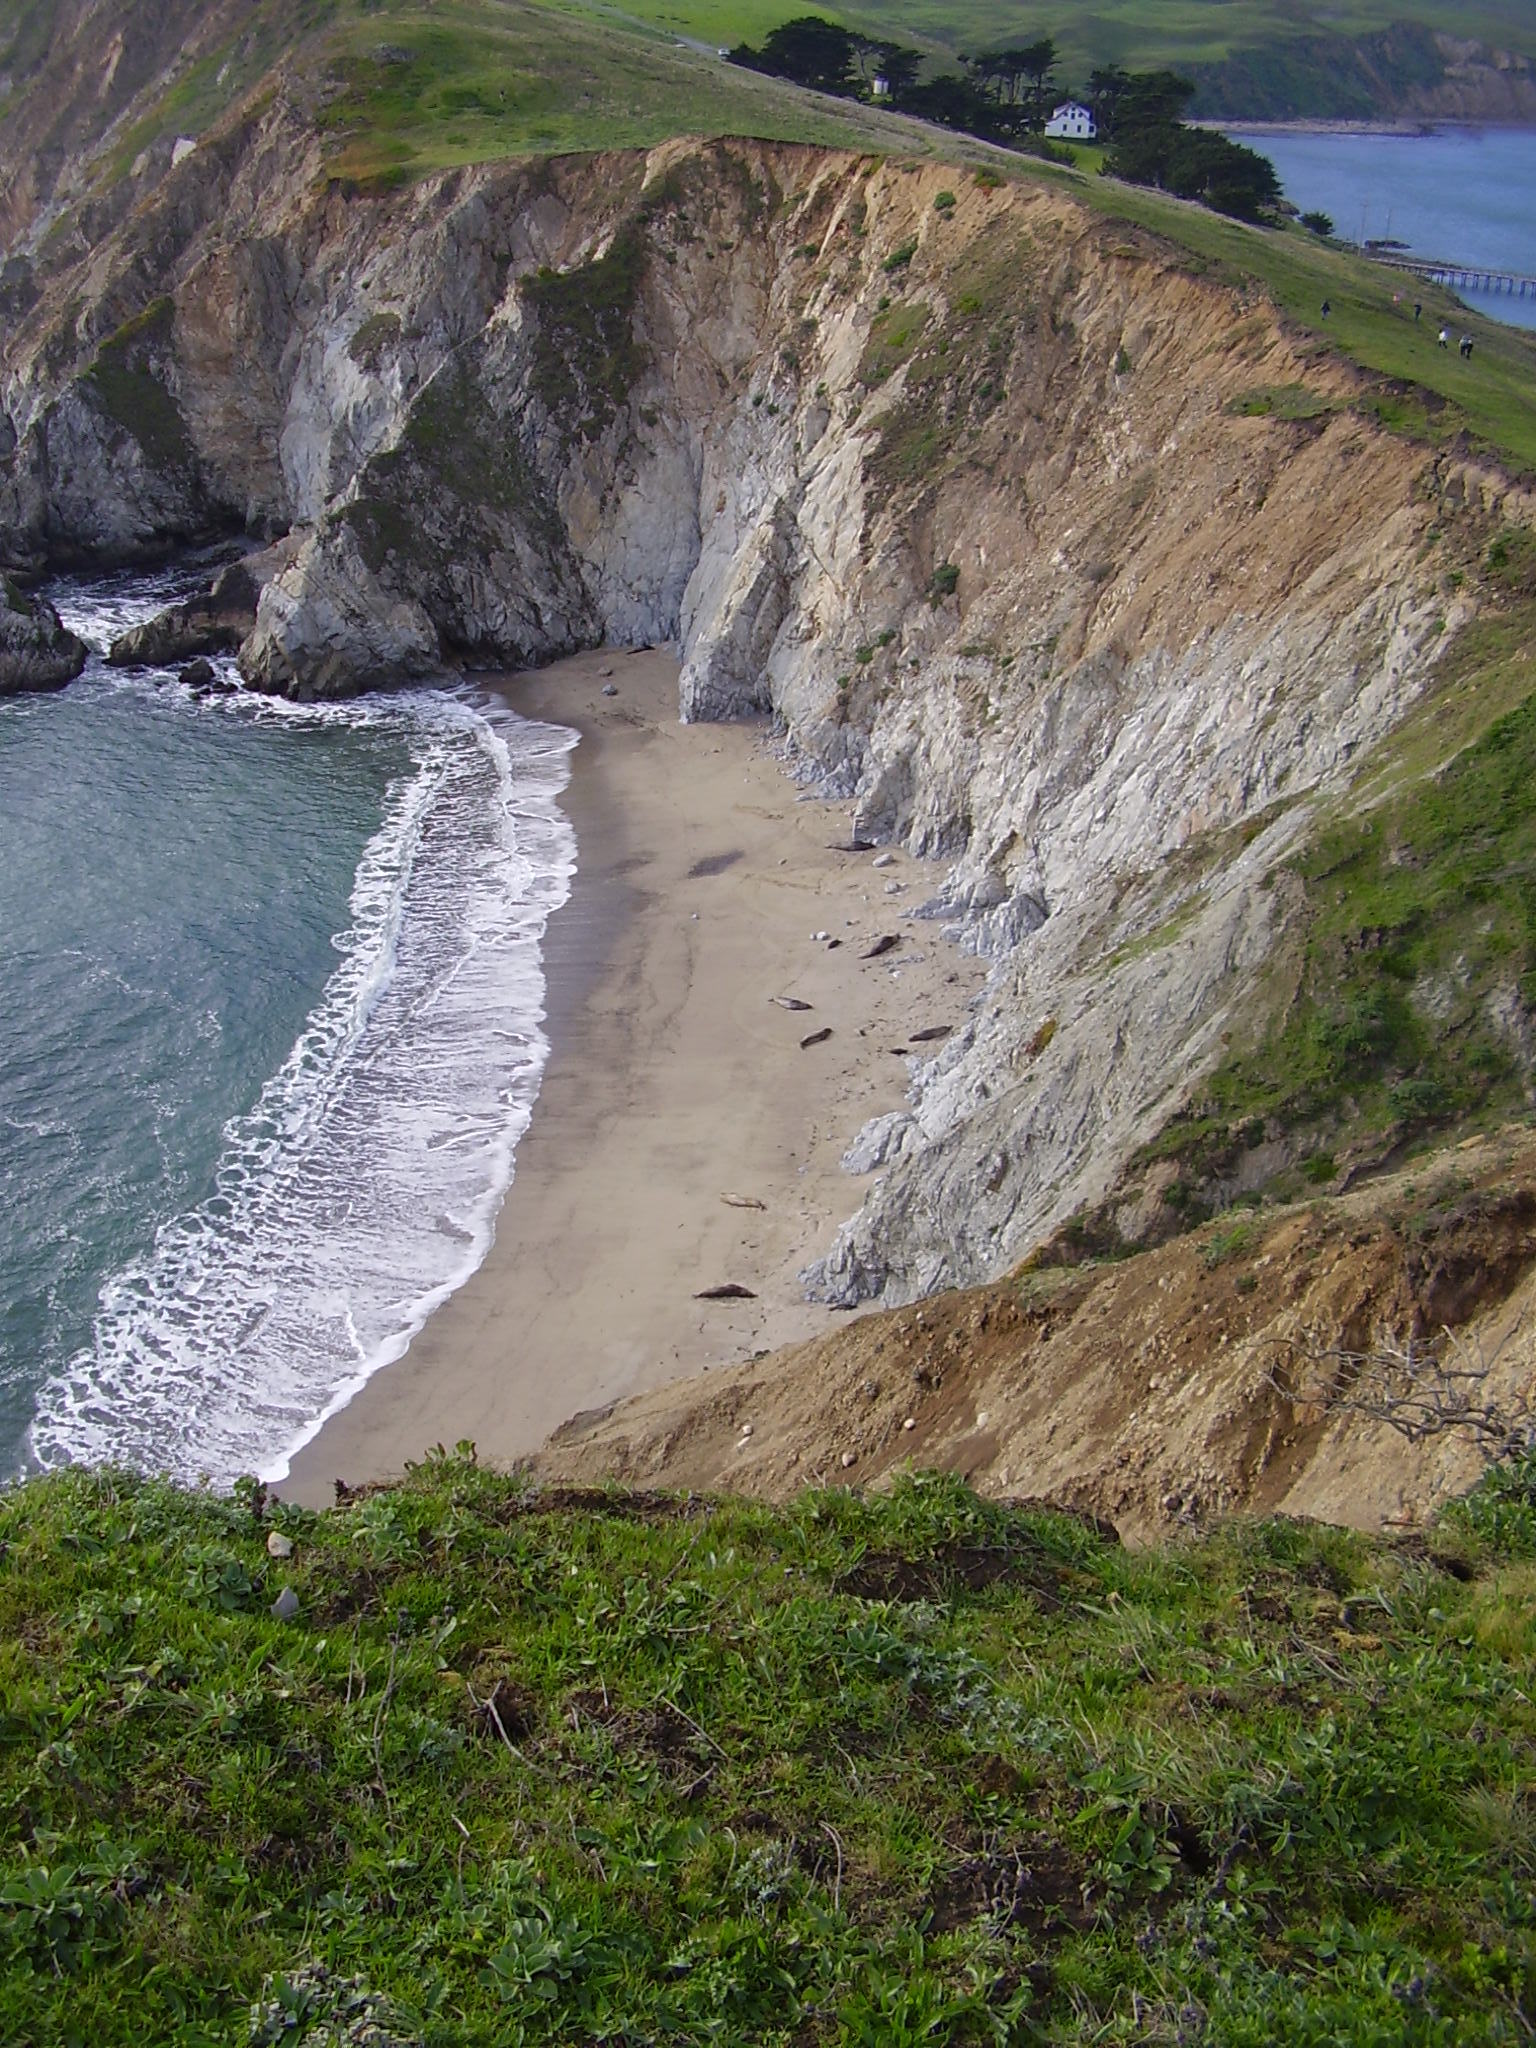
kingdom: Animalia
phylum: Chordata
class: Mammalia
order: Carnivora
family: Phocidae
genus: Mirounga
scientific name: Mirounga angustirostris
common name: Northern elephant seal
